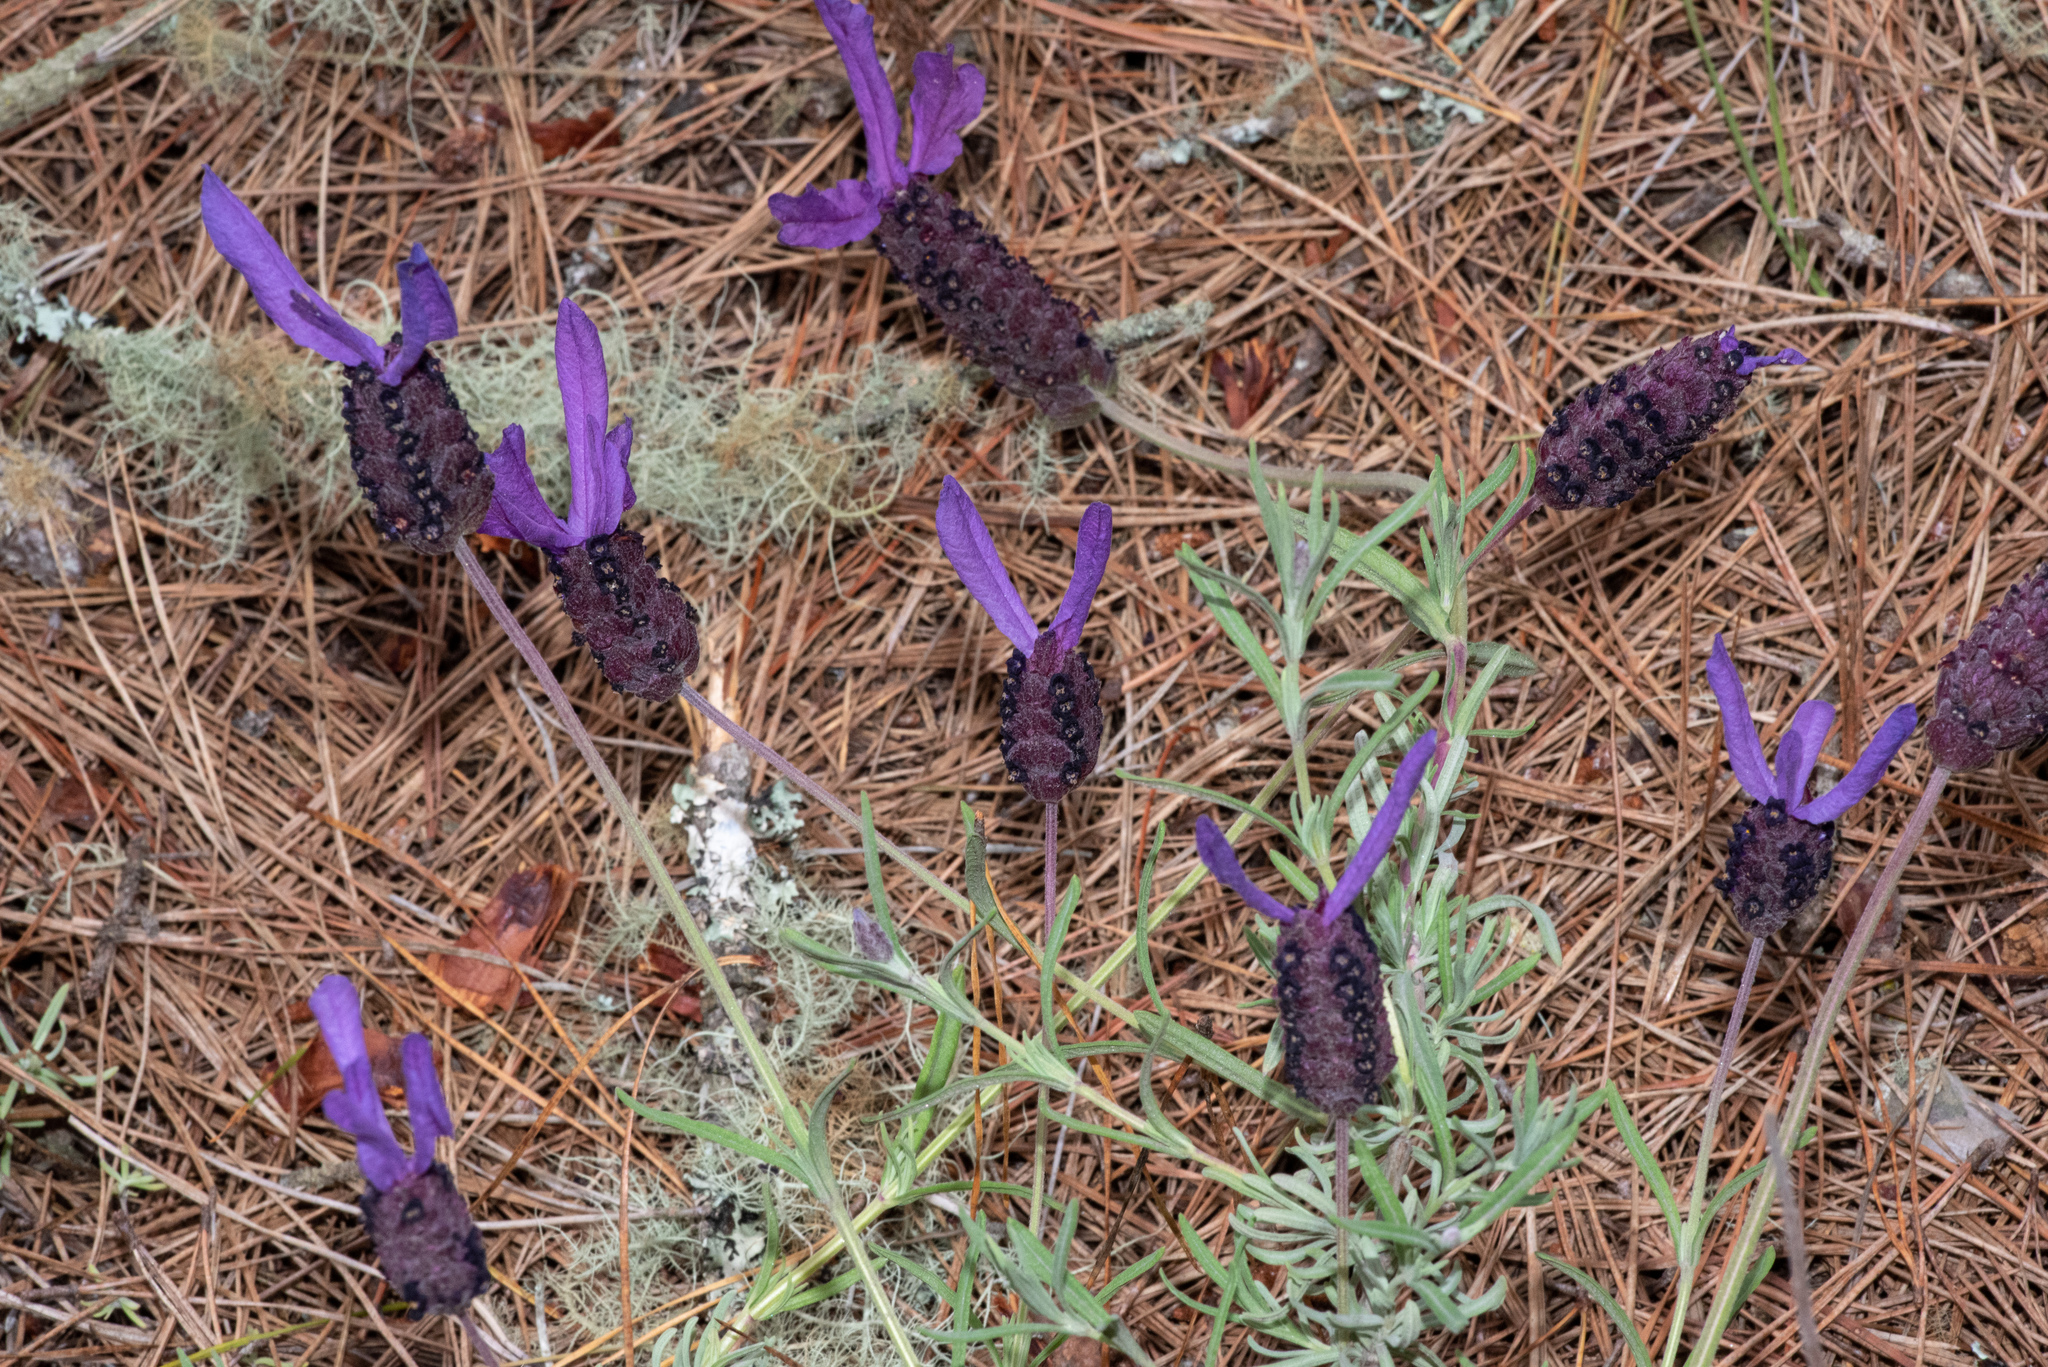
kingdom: Plantae
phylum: Tracheophyta
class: Magnoliopsida
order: Lamiales
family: Lamiaceae
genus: Lavandula
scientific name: Lavandula stoechas
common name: French lavender
